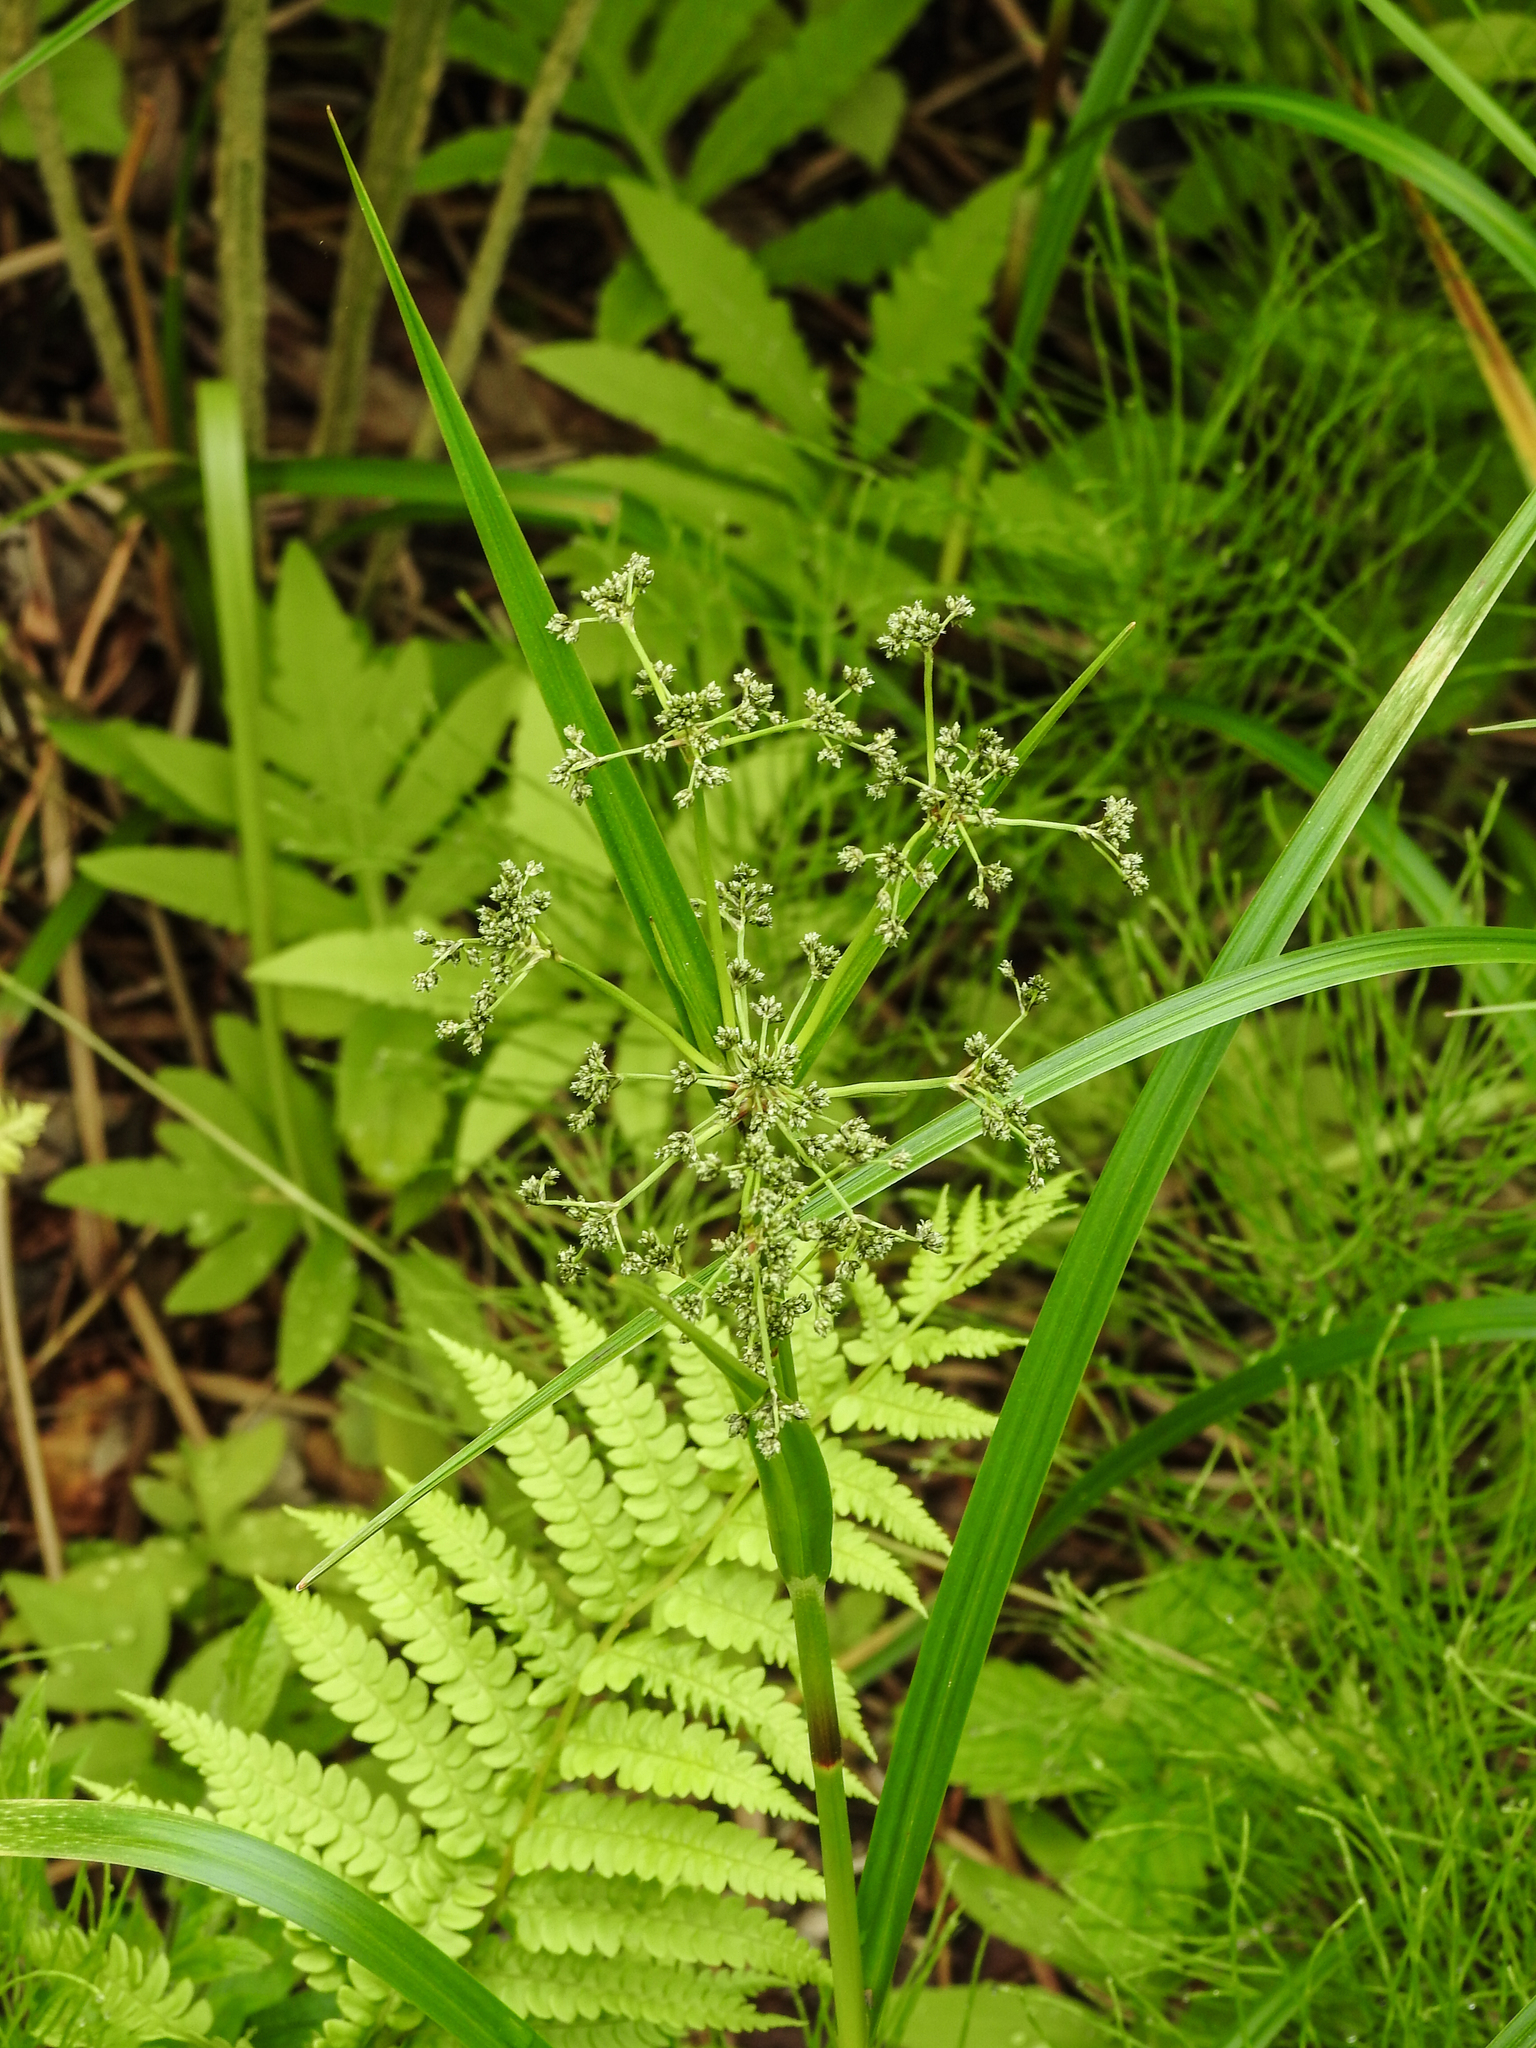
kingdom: Plantae
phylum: Tracheophyta
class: Liliopsida
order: Poales
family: Cyperaceae
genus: Scirpus
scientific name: Scirpus microcarpus
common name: Panicled bulrush
